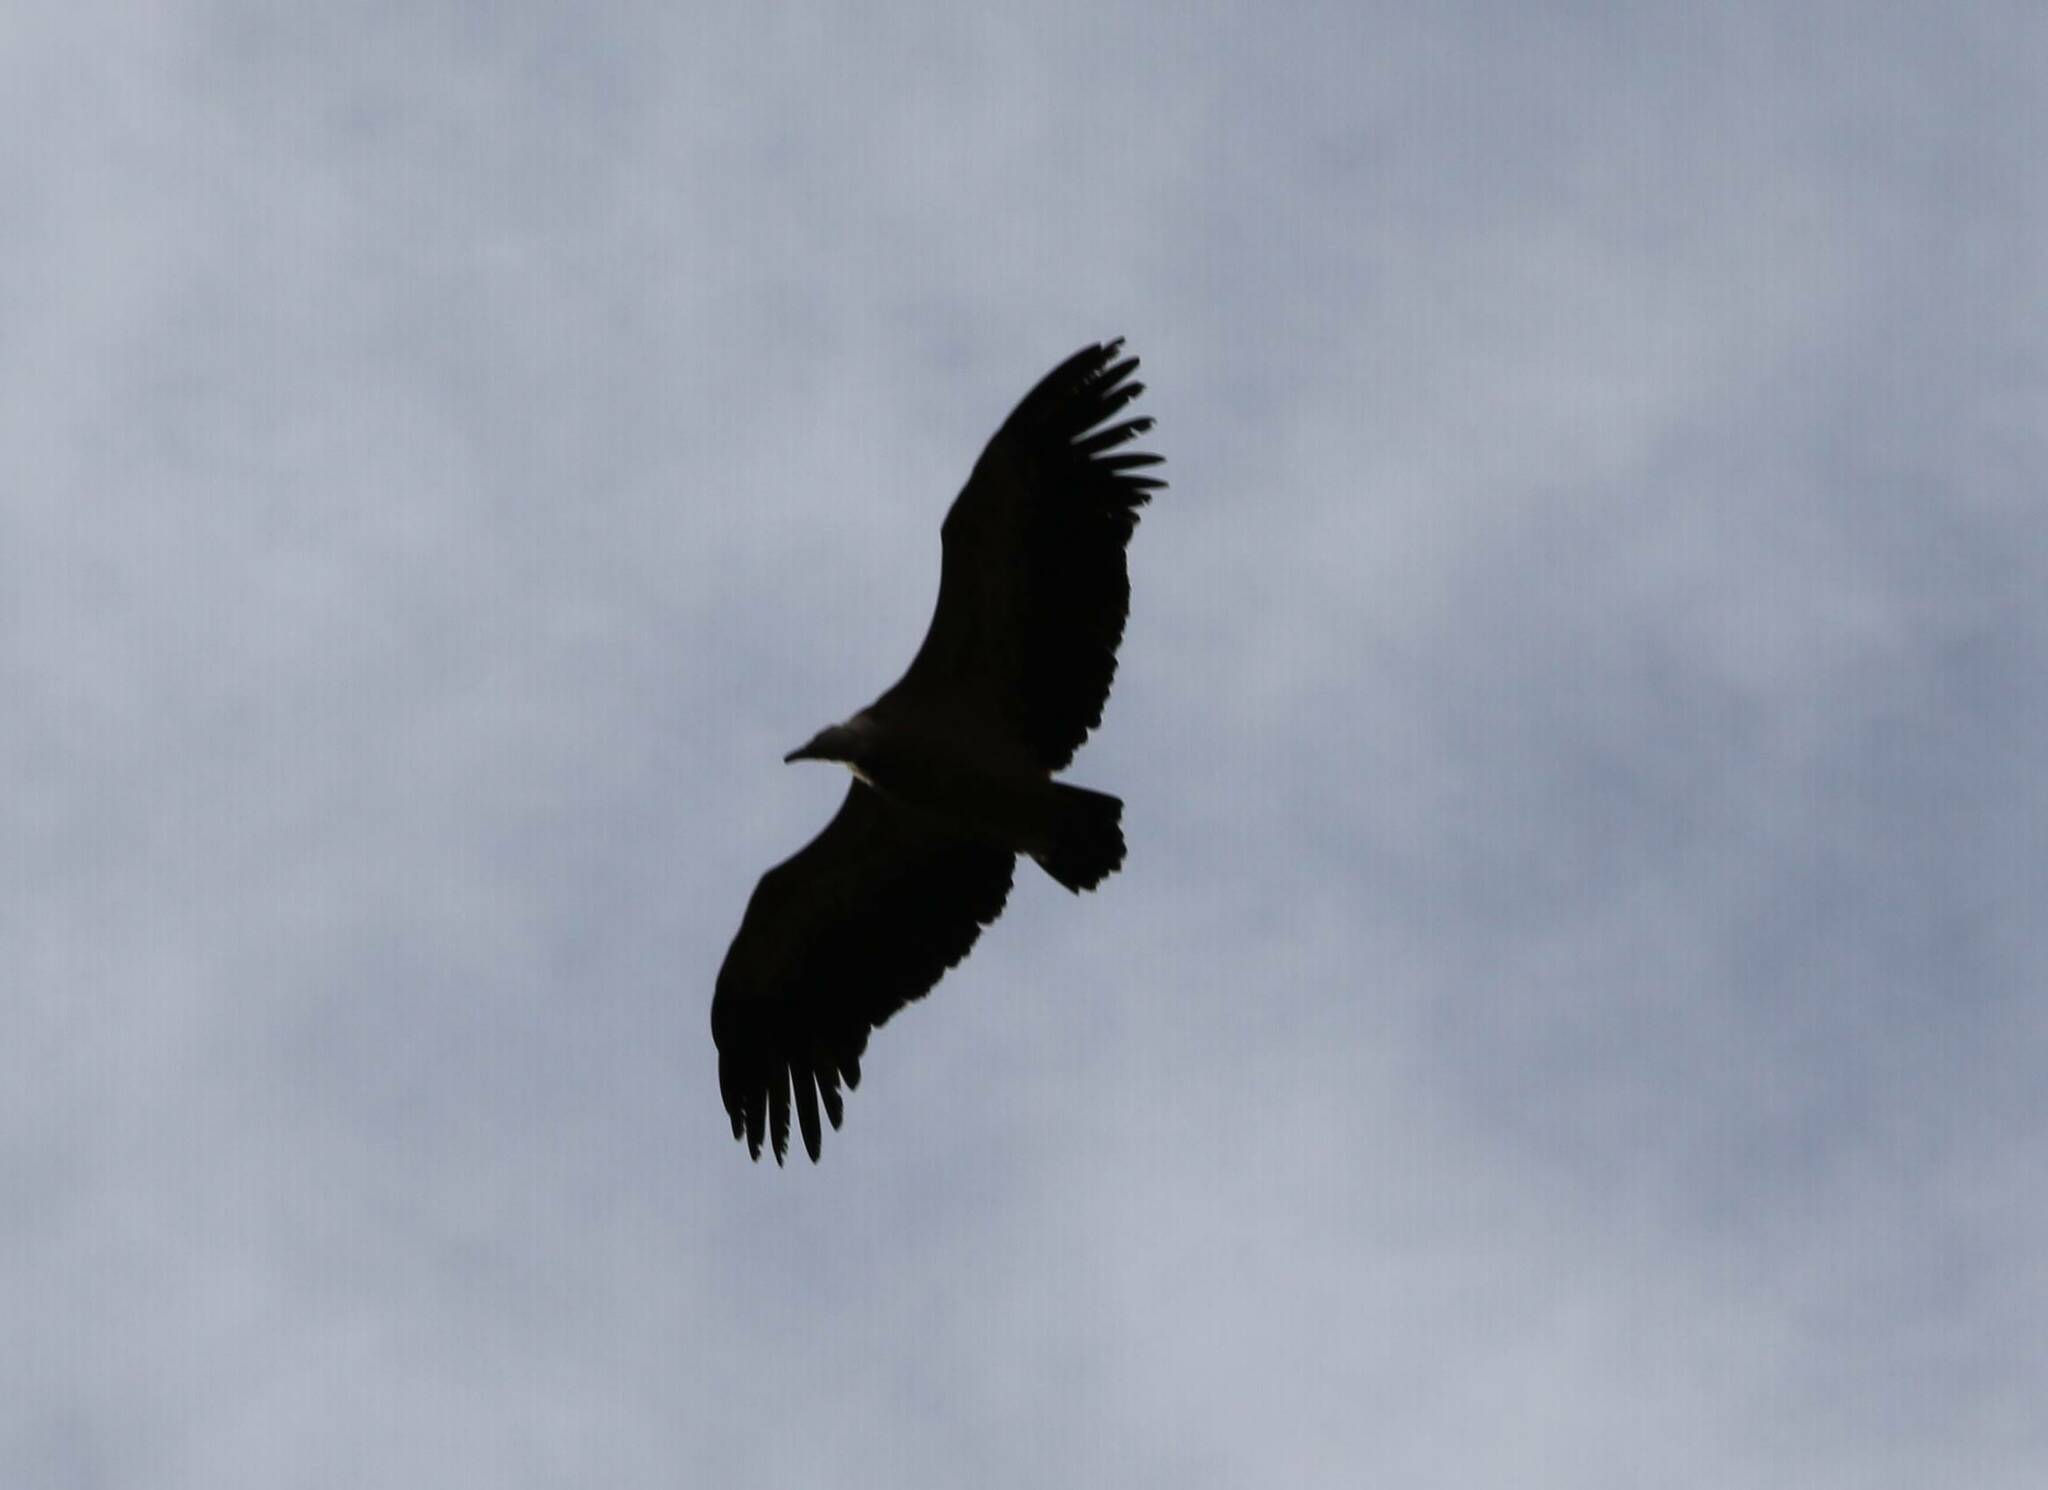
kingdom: Animalia
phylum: Chordata
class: Aves
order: Accipitriformes
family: Accipitridae
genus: Gyps
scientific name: Gyps fulvus
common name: Griffon vulture
